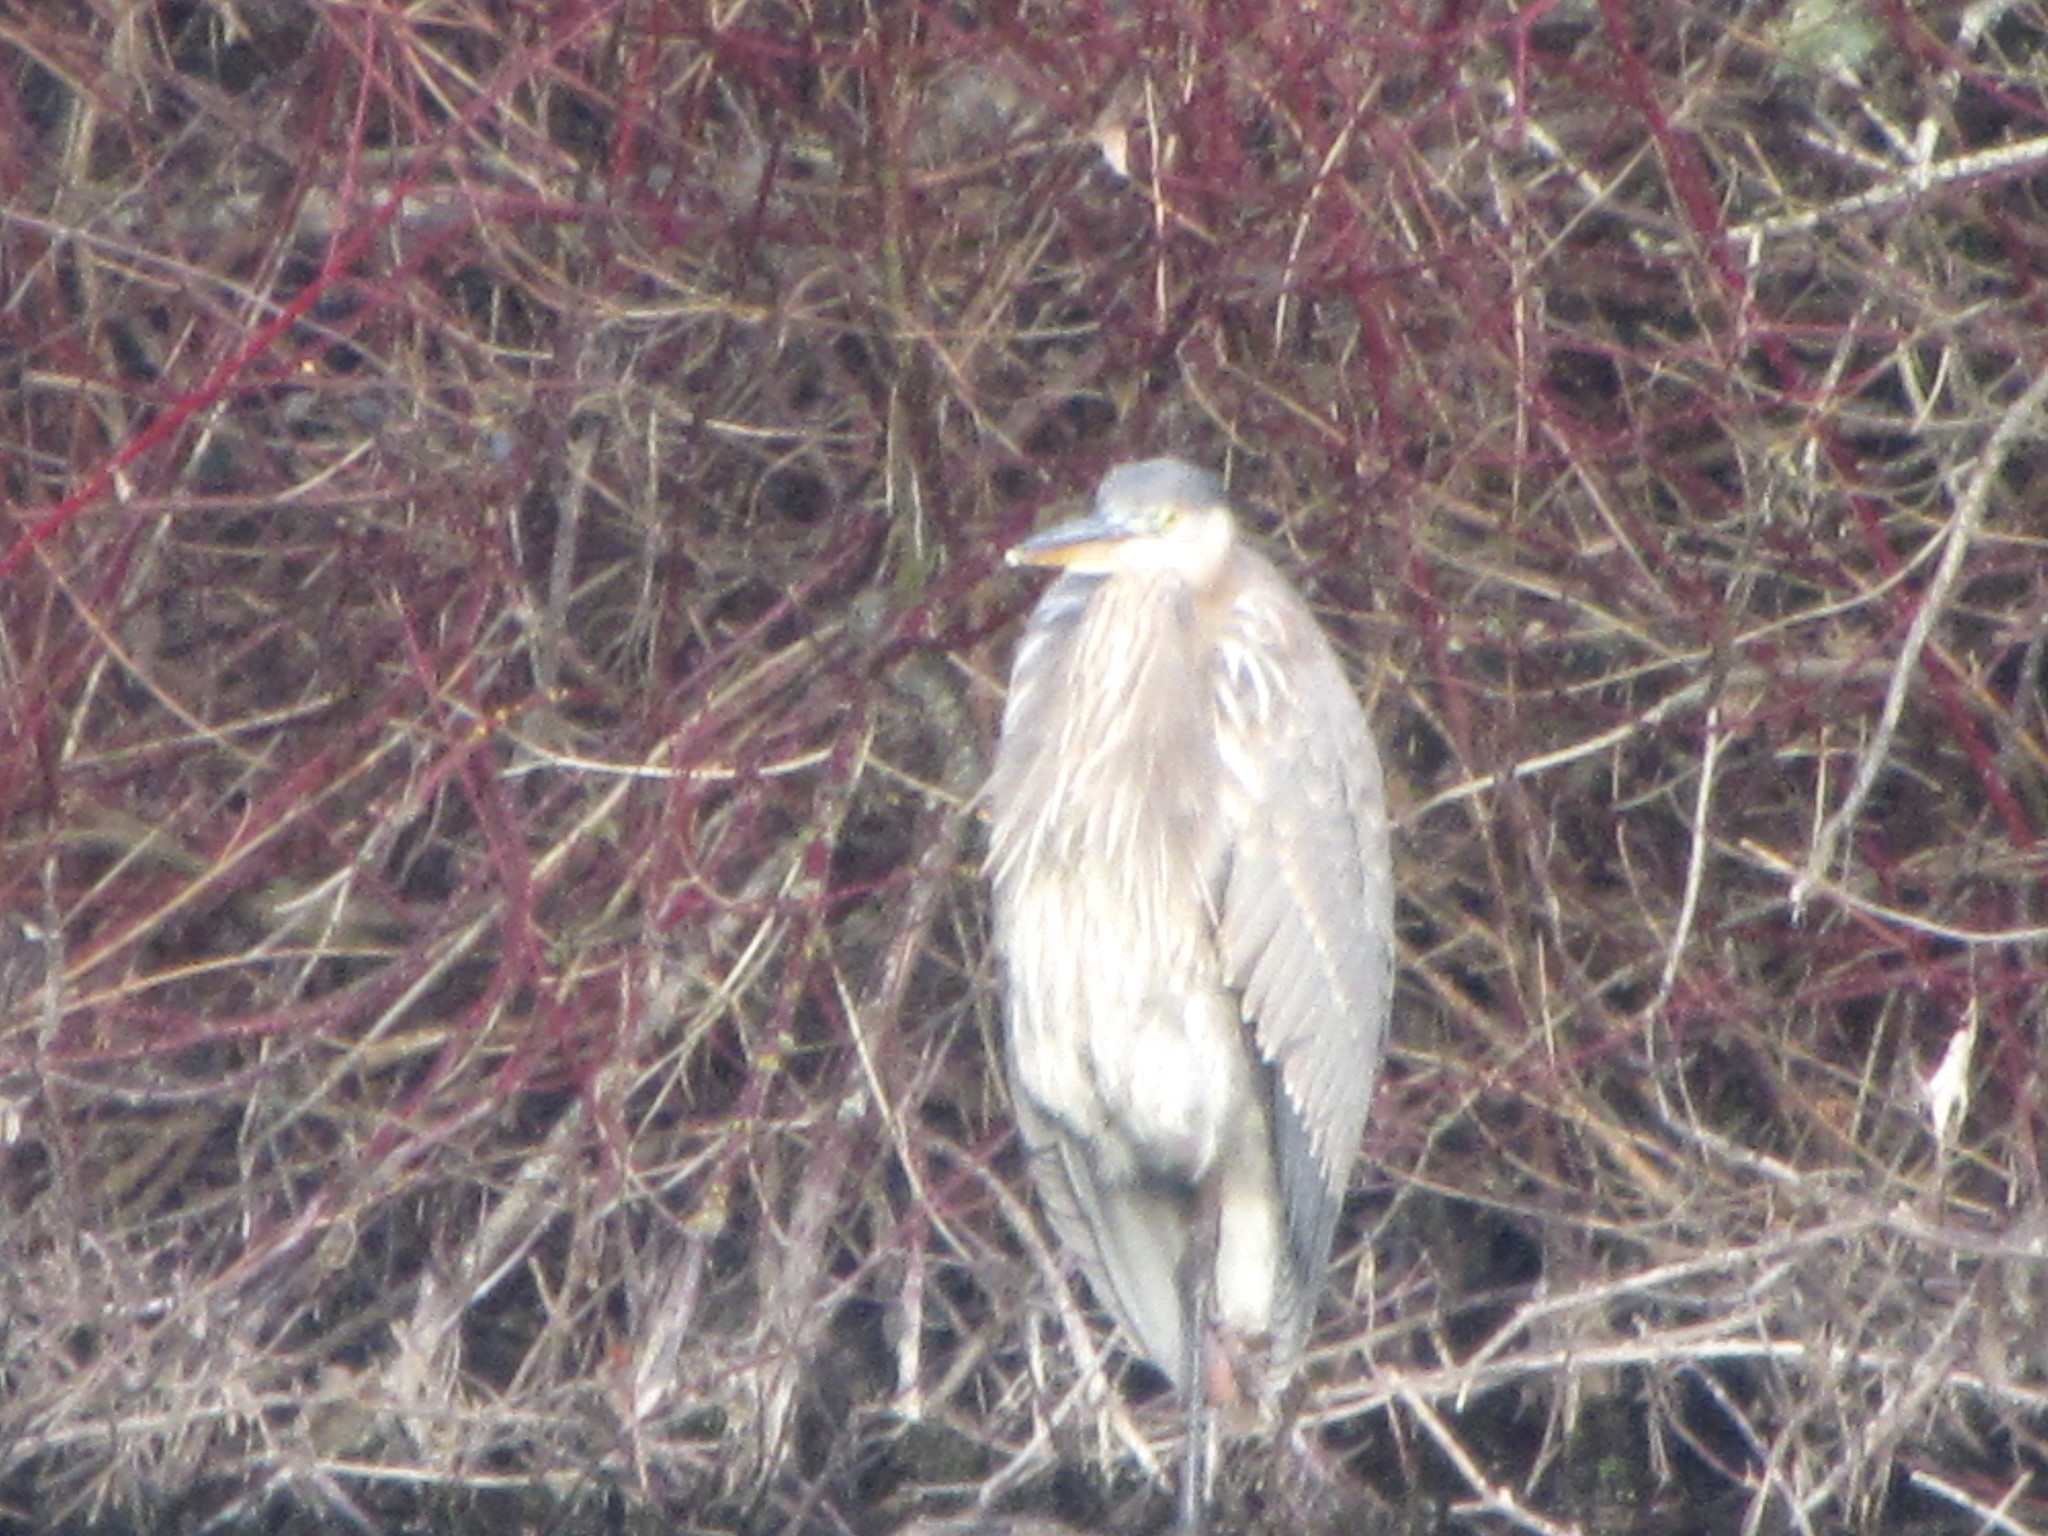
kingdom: Animalia
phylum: Chordata
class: Aves
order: Pelecaniformes
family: Ardeidae
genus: Ardea
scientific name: Ardea herodias
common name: Great blue heron
